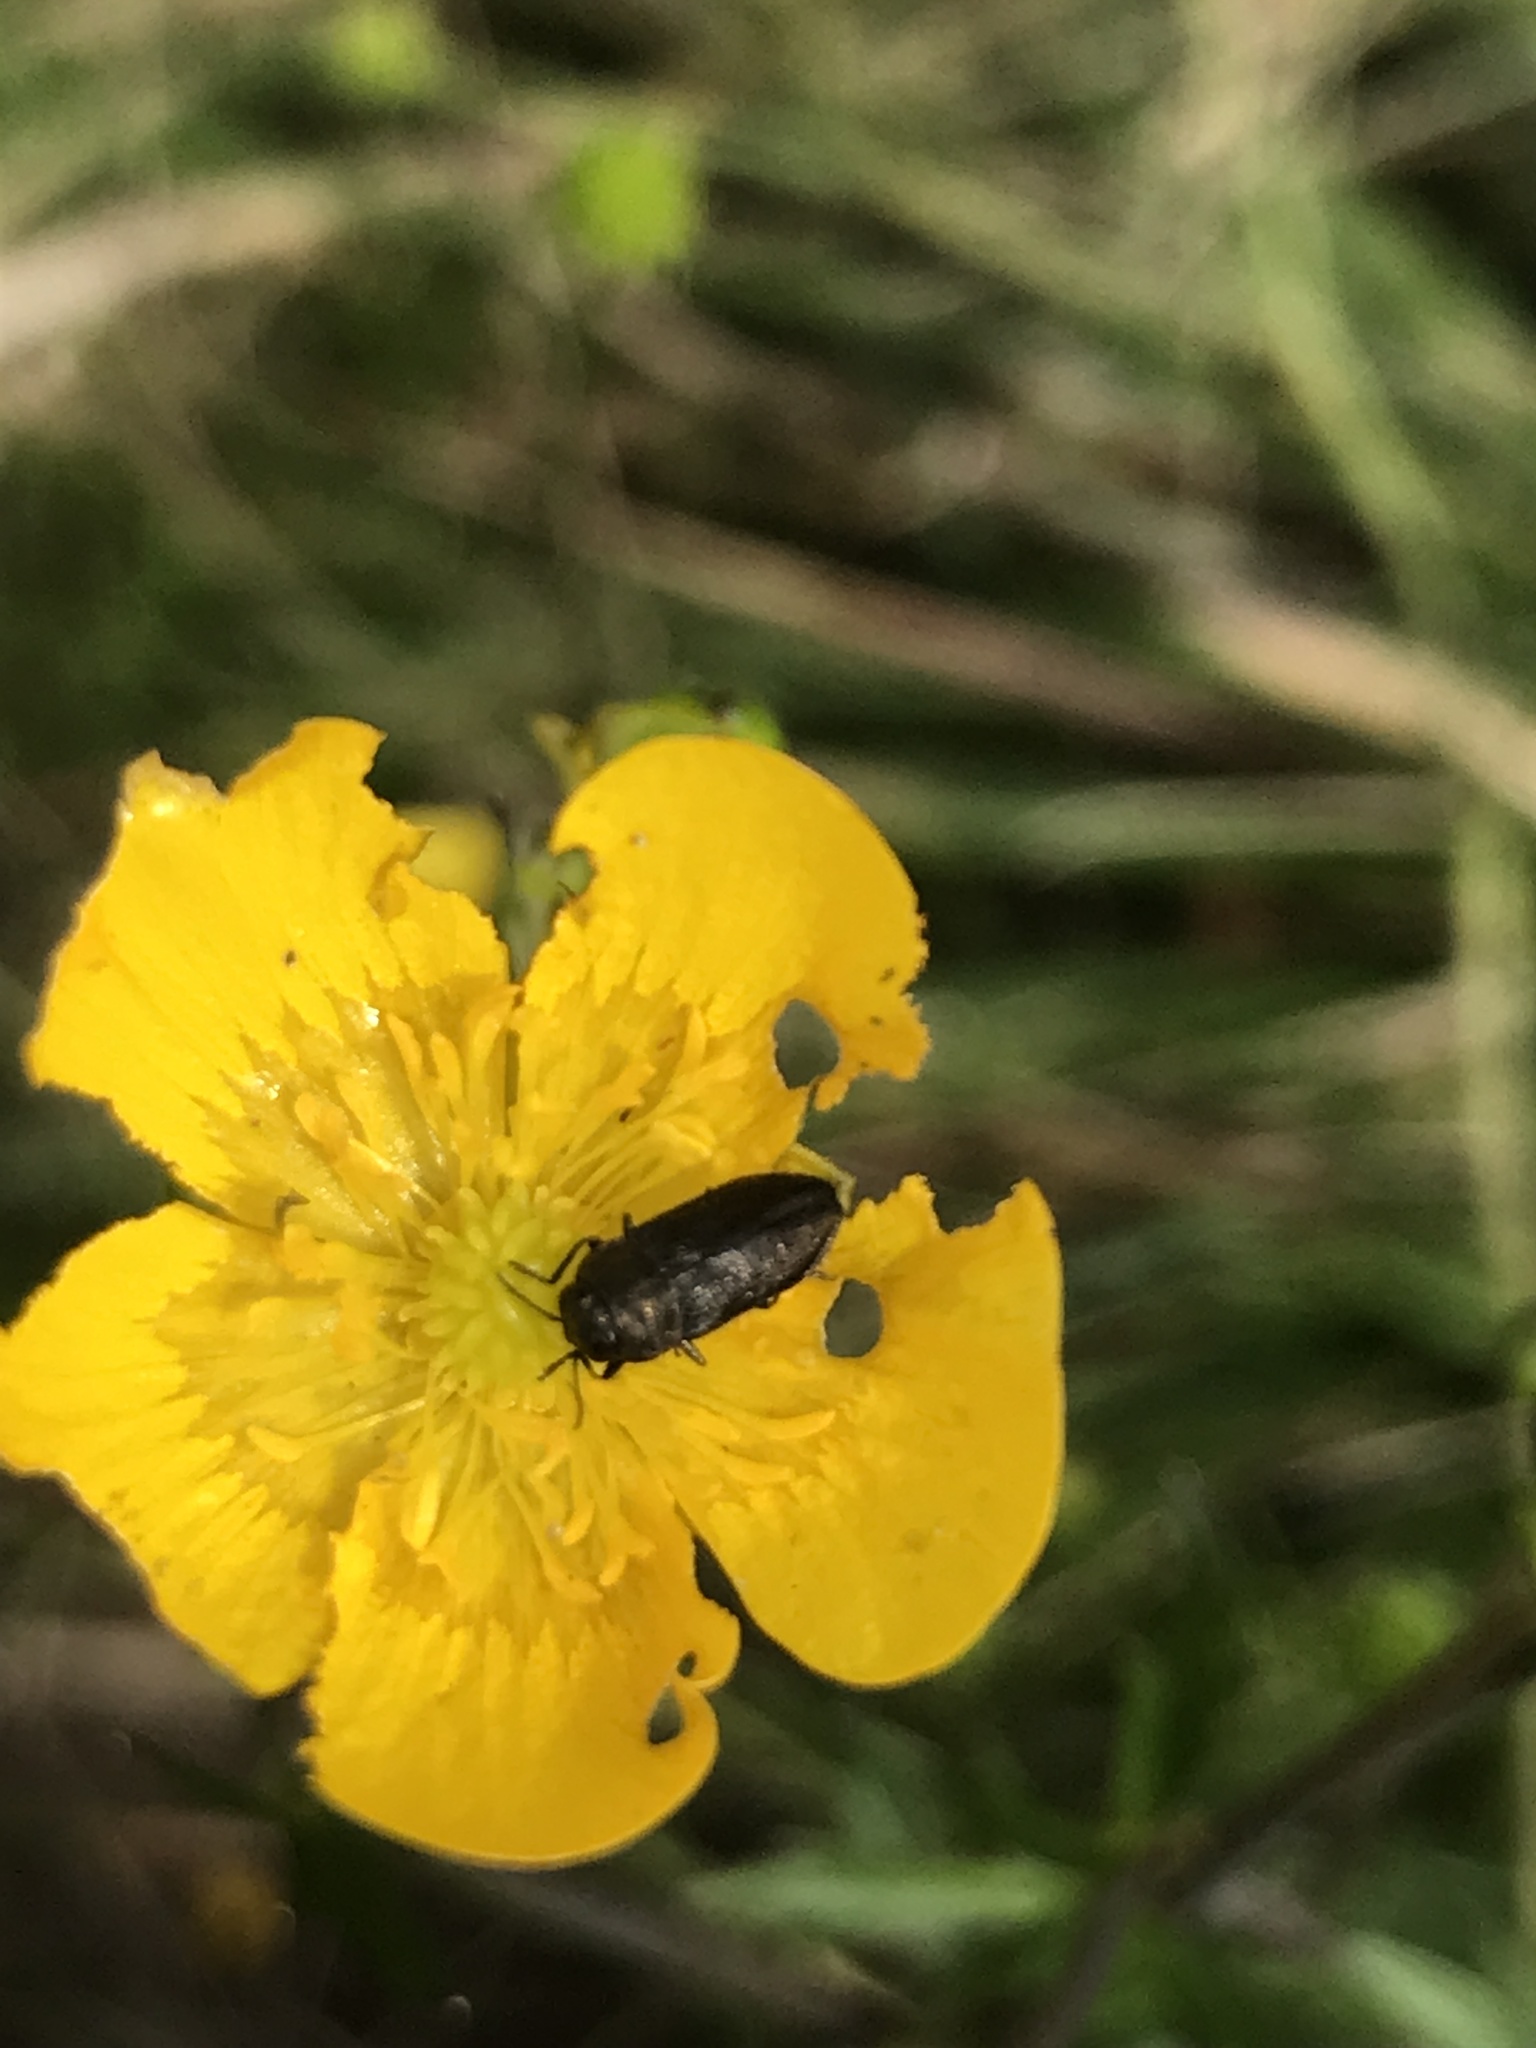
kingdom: Animalia
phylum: Arthropoda
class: Insecta
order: Coleoptera
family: Buprestidae
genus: Anthaxia
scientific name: Anthaxia quadripunctata
